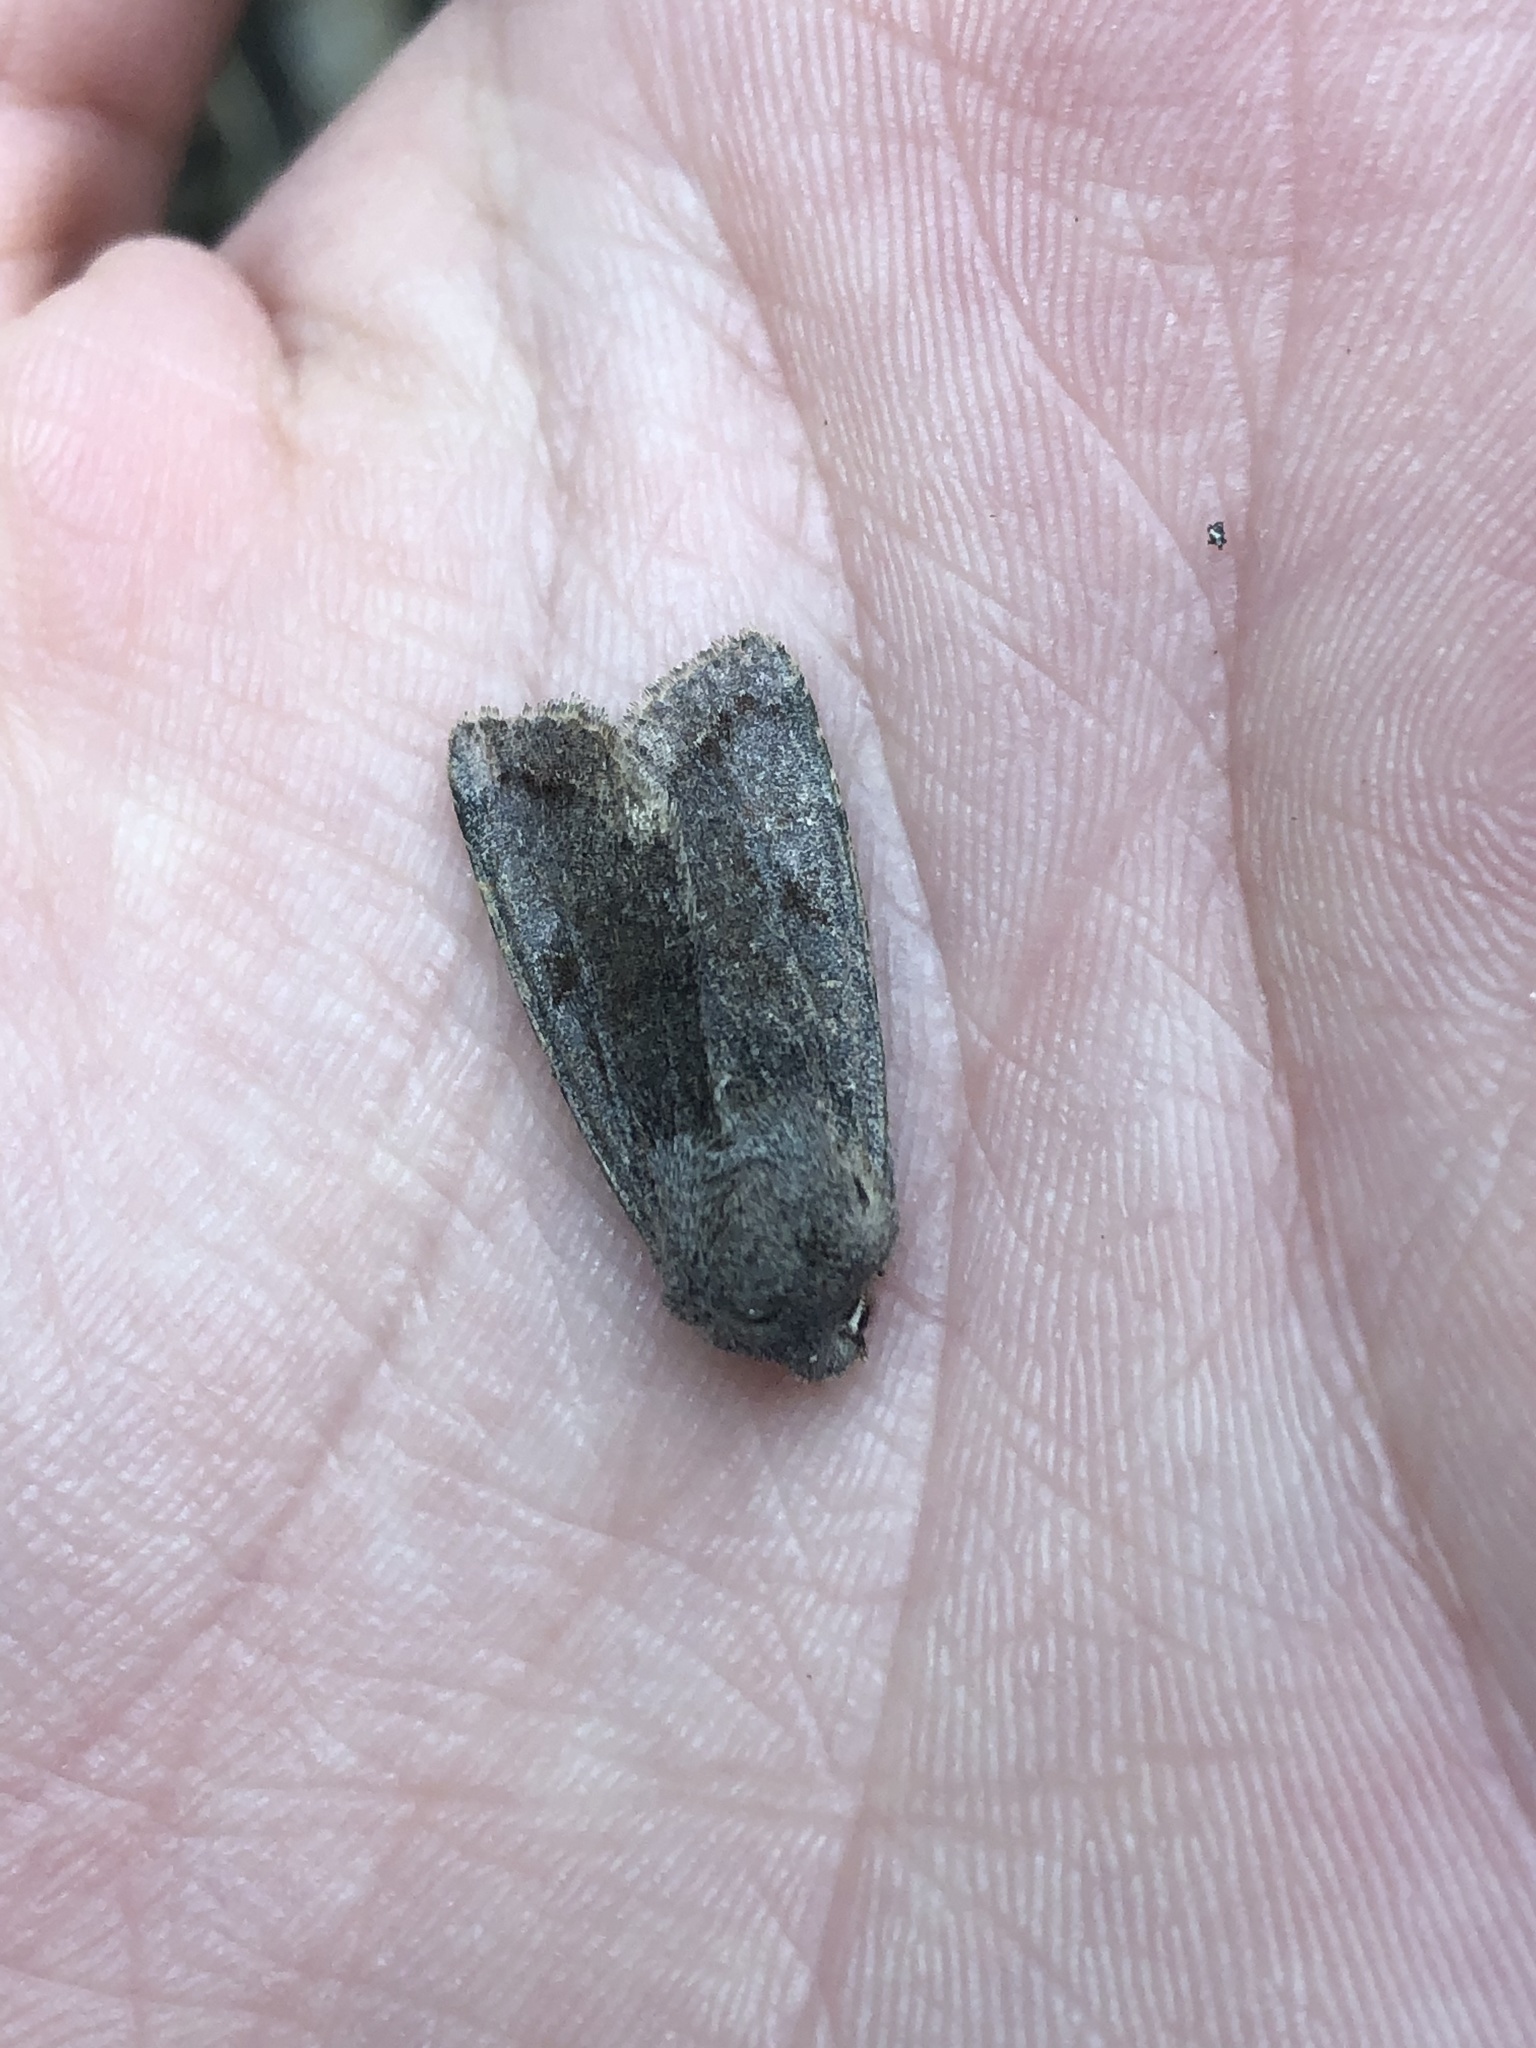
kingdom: Animalia
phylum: Arthropoda
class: Insecta
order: Lepidoptera
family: Noctuidae
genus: Orthosia
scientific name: Orthosia incerta
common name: Clouded drab
